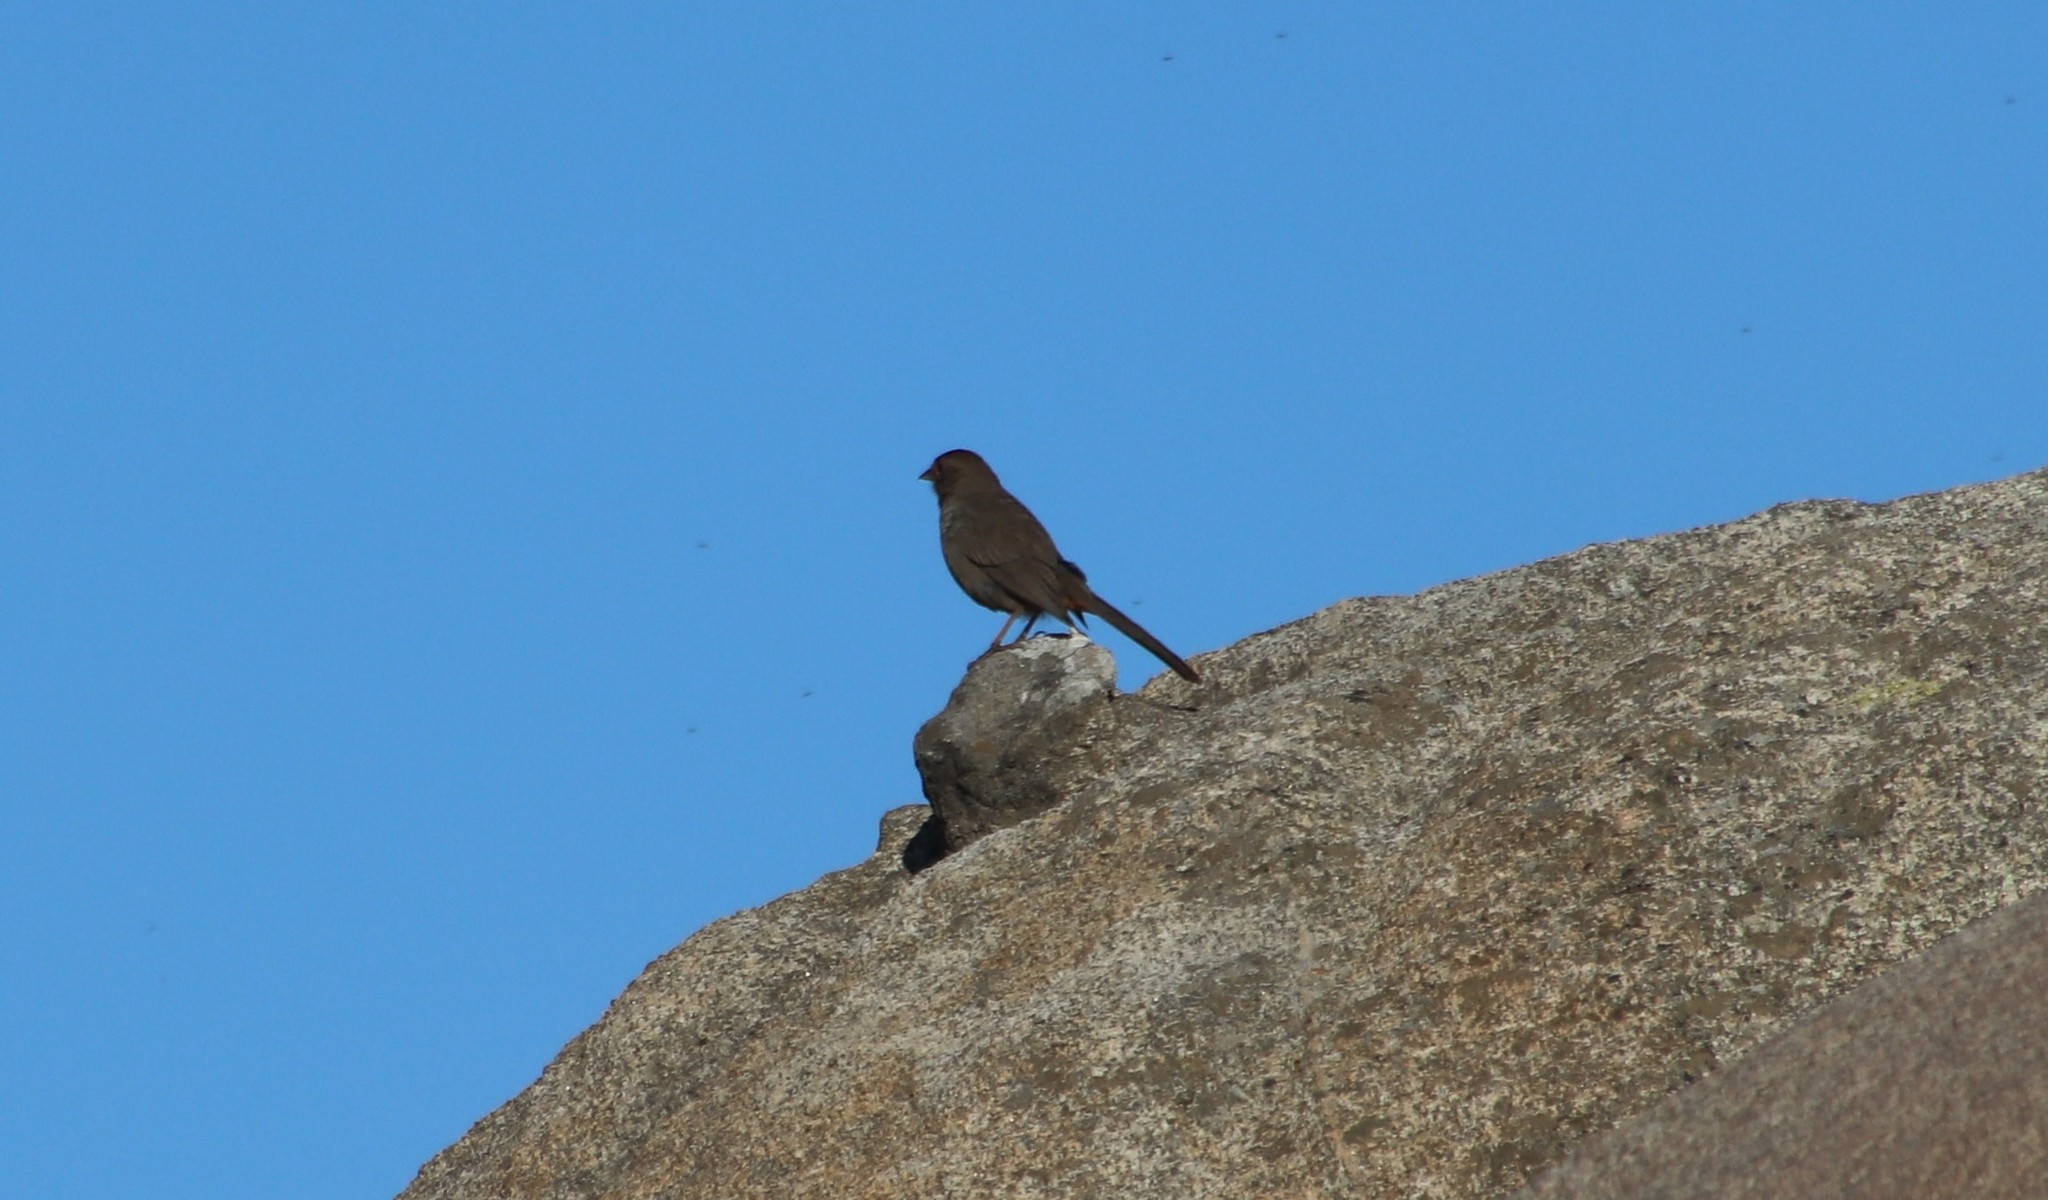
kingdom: Animalia
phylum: Chordata
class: Aves
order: Passeriformes
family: Passerellidae
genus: Melozone
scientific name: Melozone crissalis
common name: California towhee
